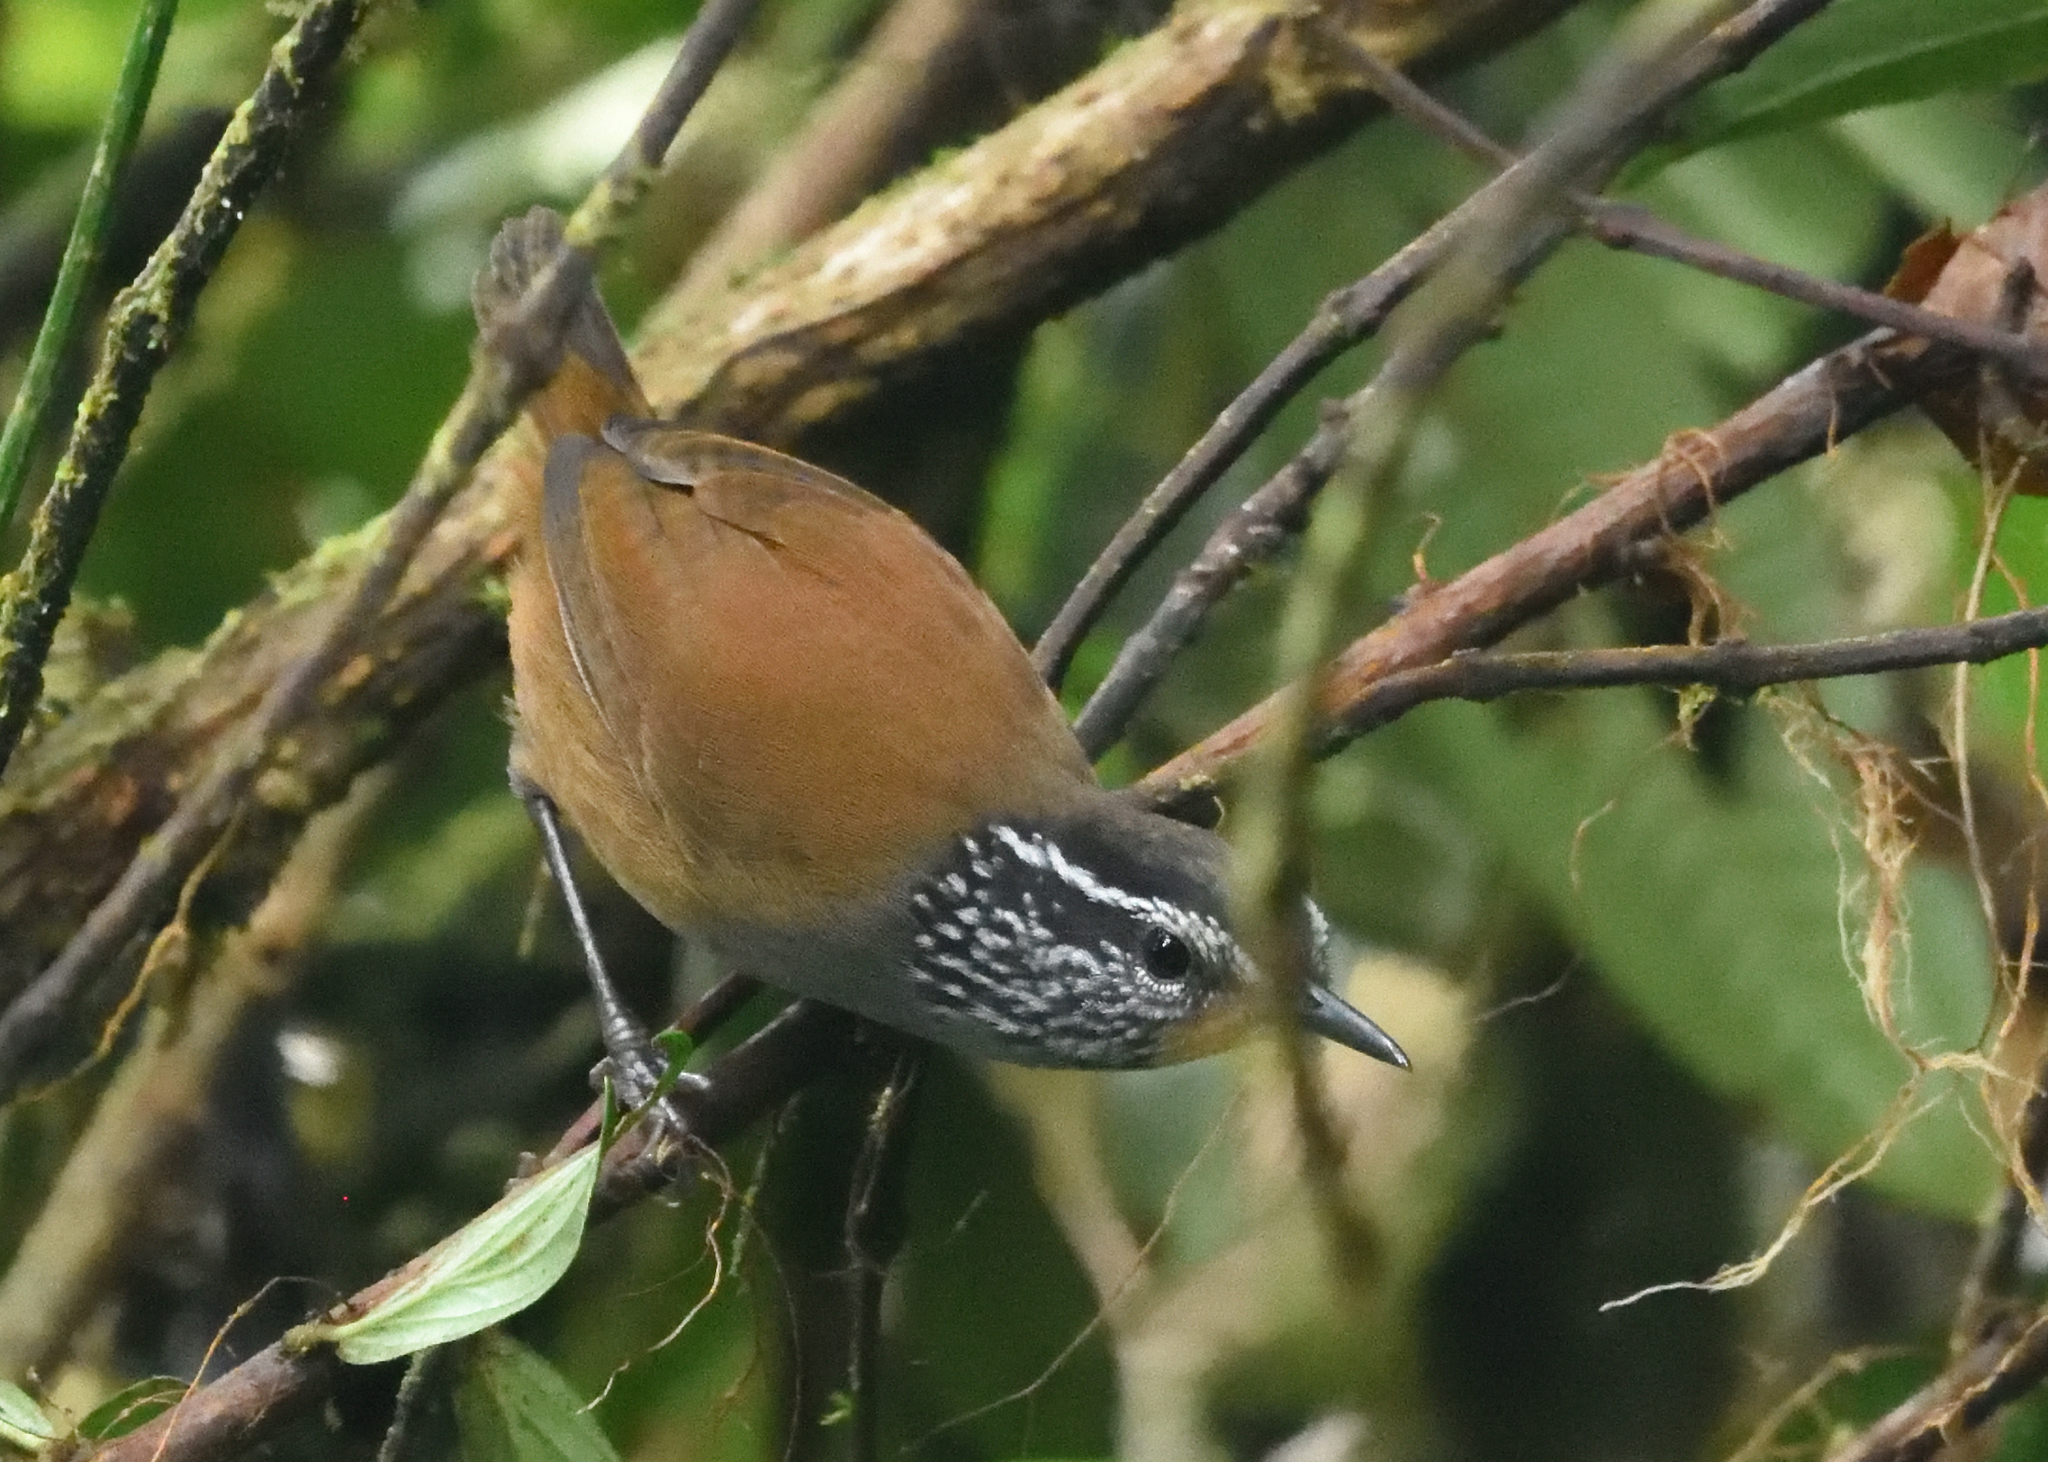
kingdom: Animalia
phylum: Chordata
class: Aves
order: Passeriformes
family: Troglodytidae
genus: Henicorhina
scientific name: Henicorhina leucophrys
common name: Gray-breasted wood-wren
